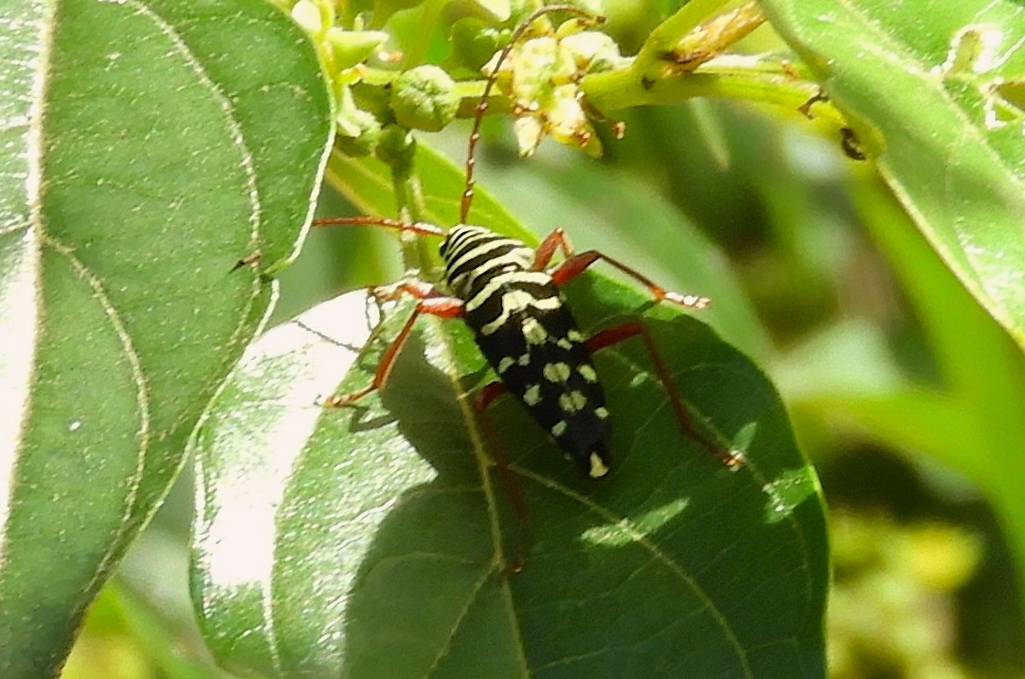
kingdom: Animalia
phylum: Arthropoda
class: Insecta
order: Coleoptera
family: Cerambycidae
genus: Placosternus
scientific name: Placosternus difficilis
